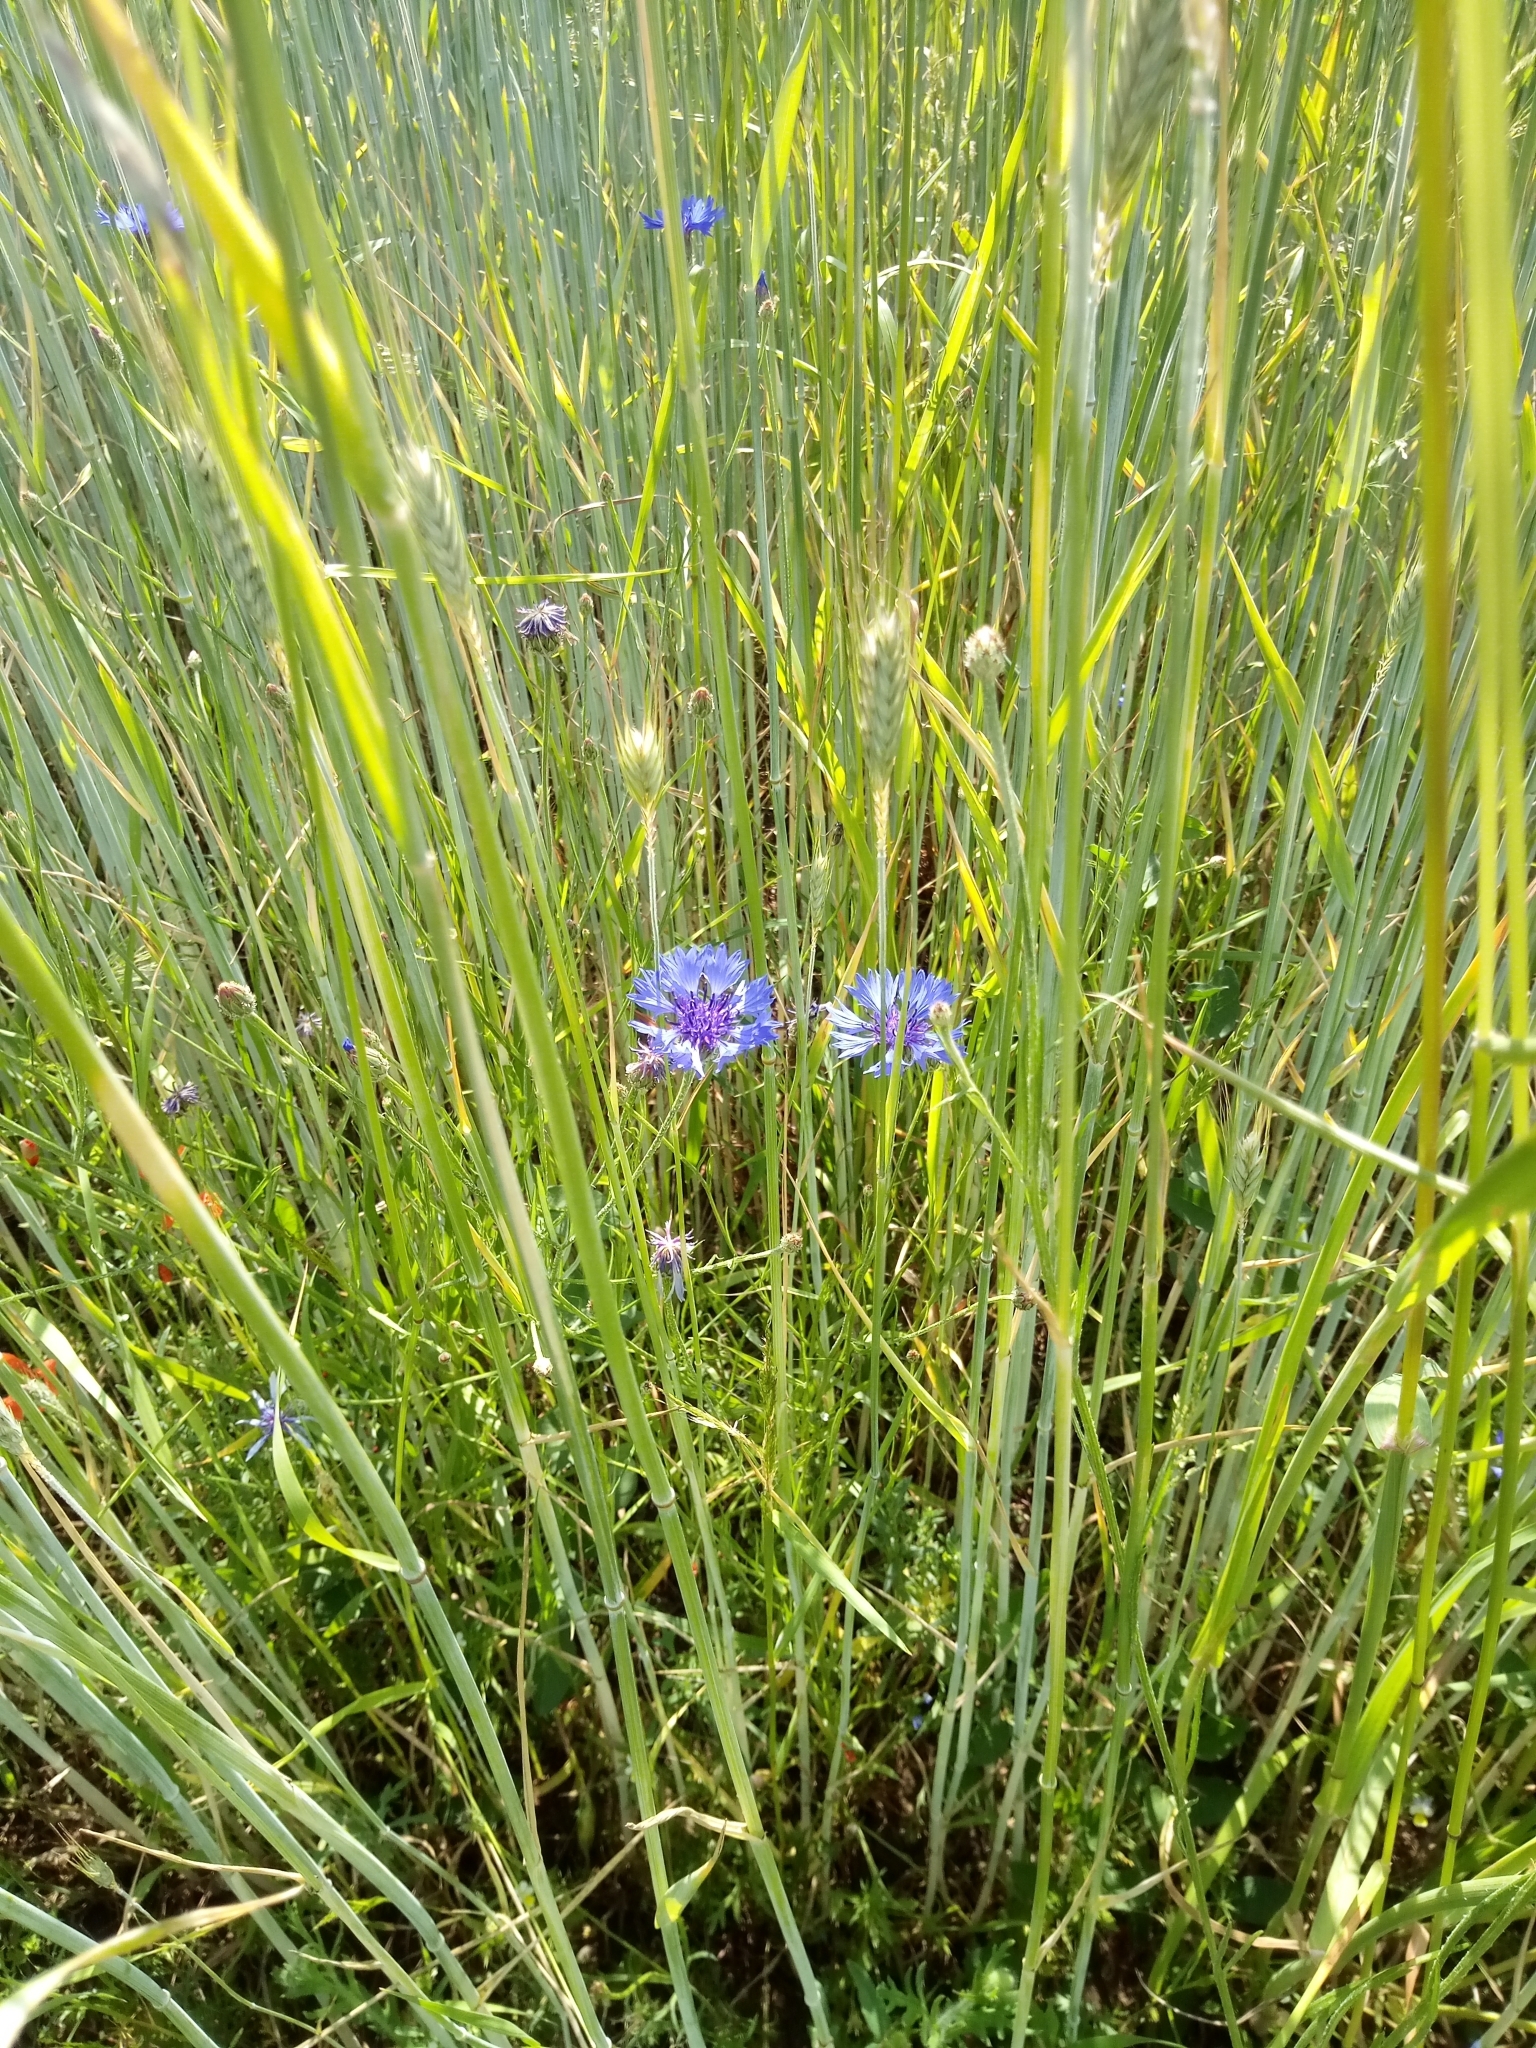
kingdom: Plantae
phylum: Tracheophyta
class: Magnoliopsida
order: Asterales
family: Asteraceae
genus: Centaurea
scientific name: Centaurea cyanus
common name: Cornflower
